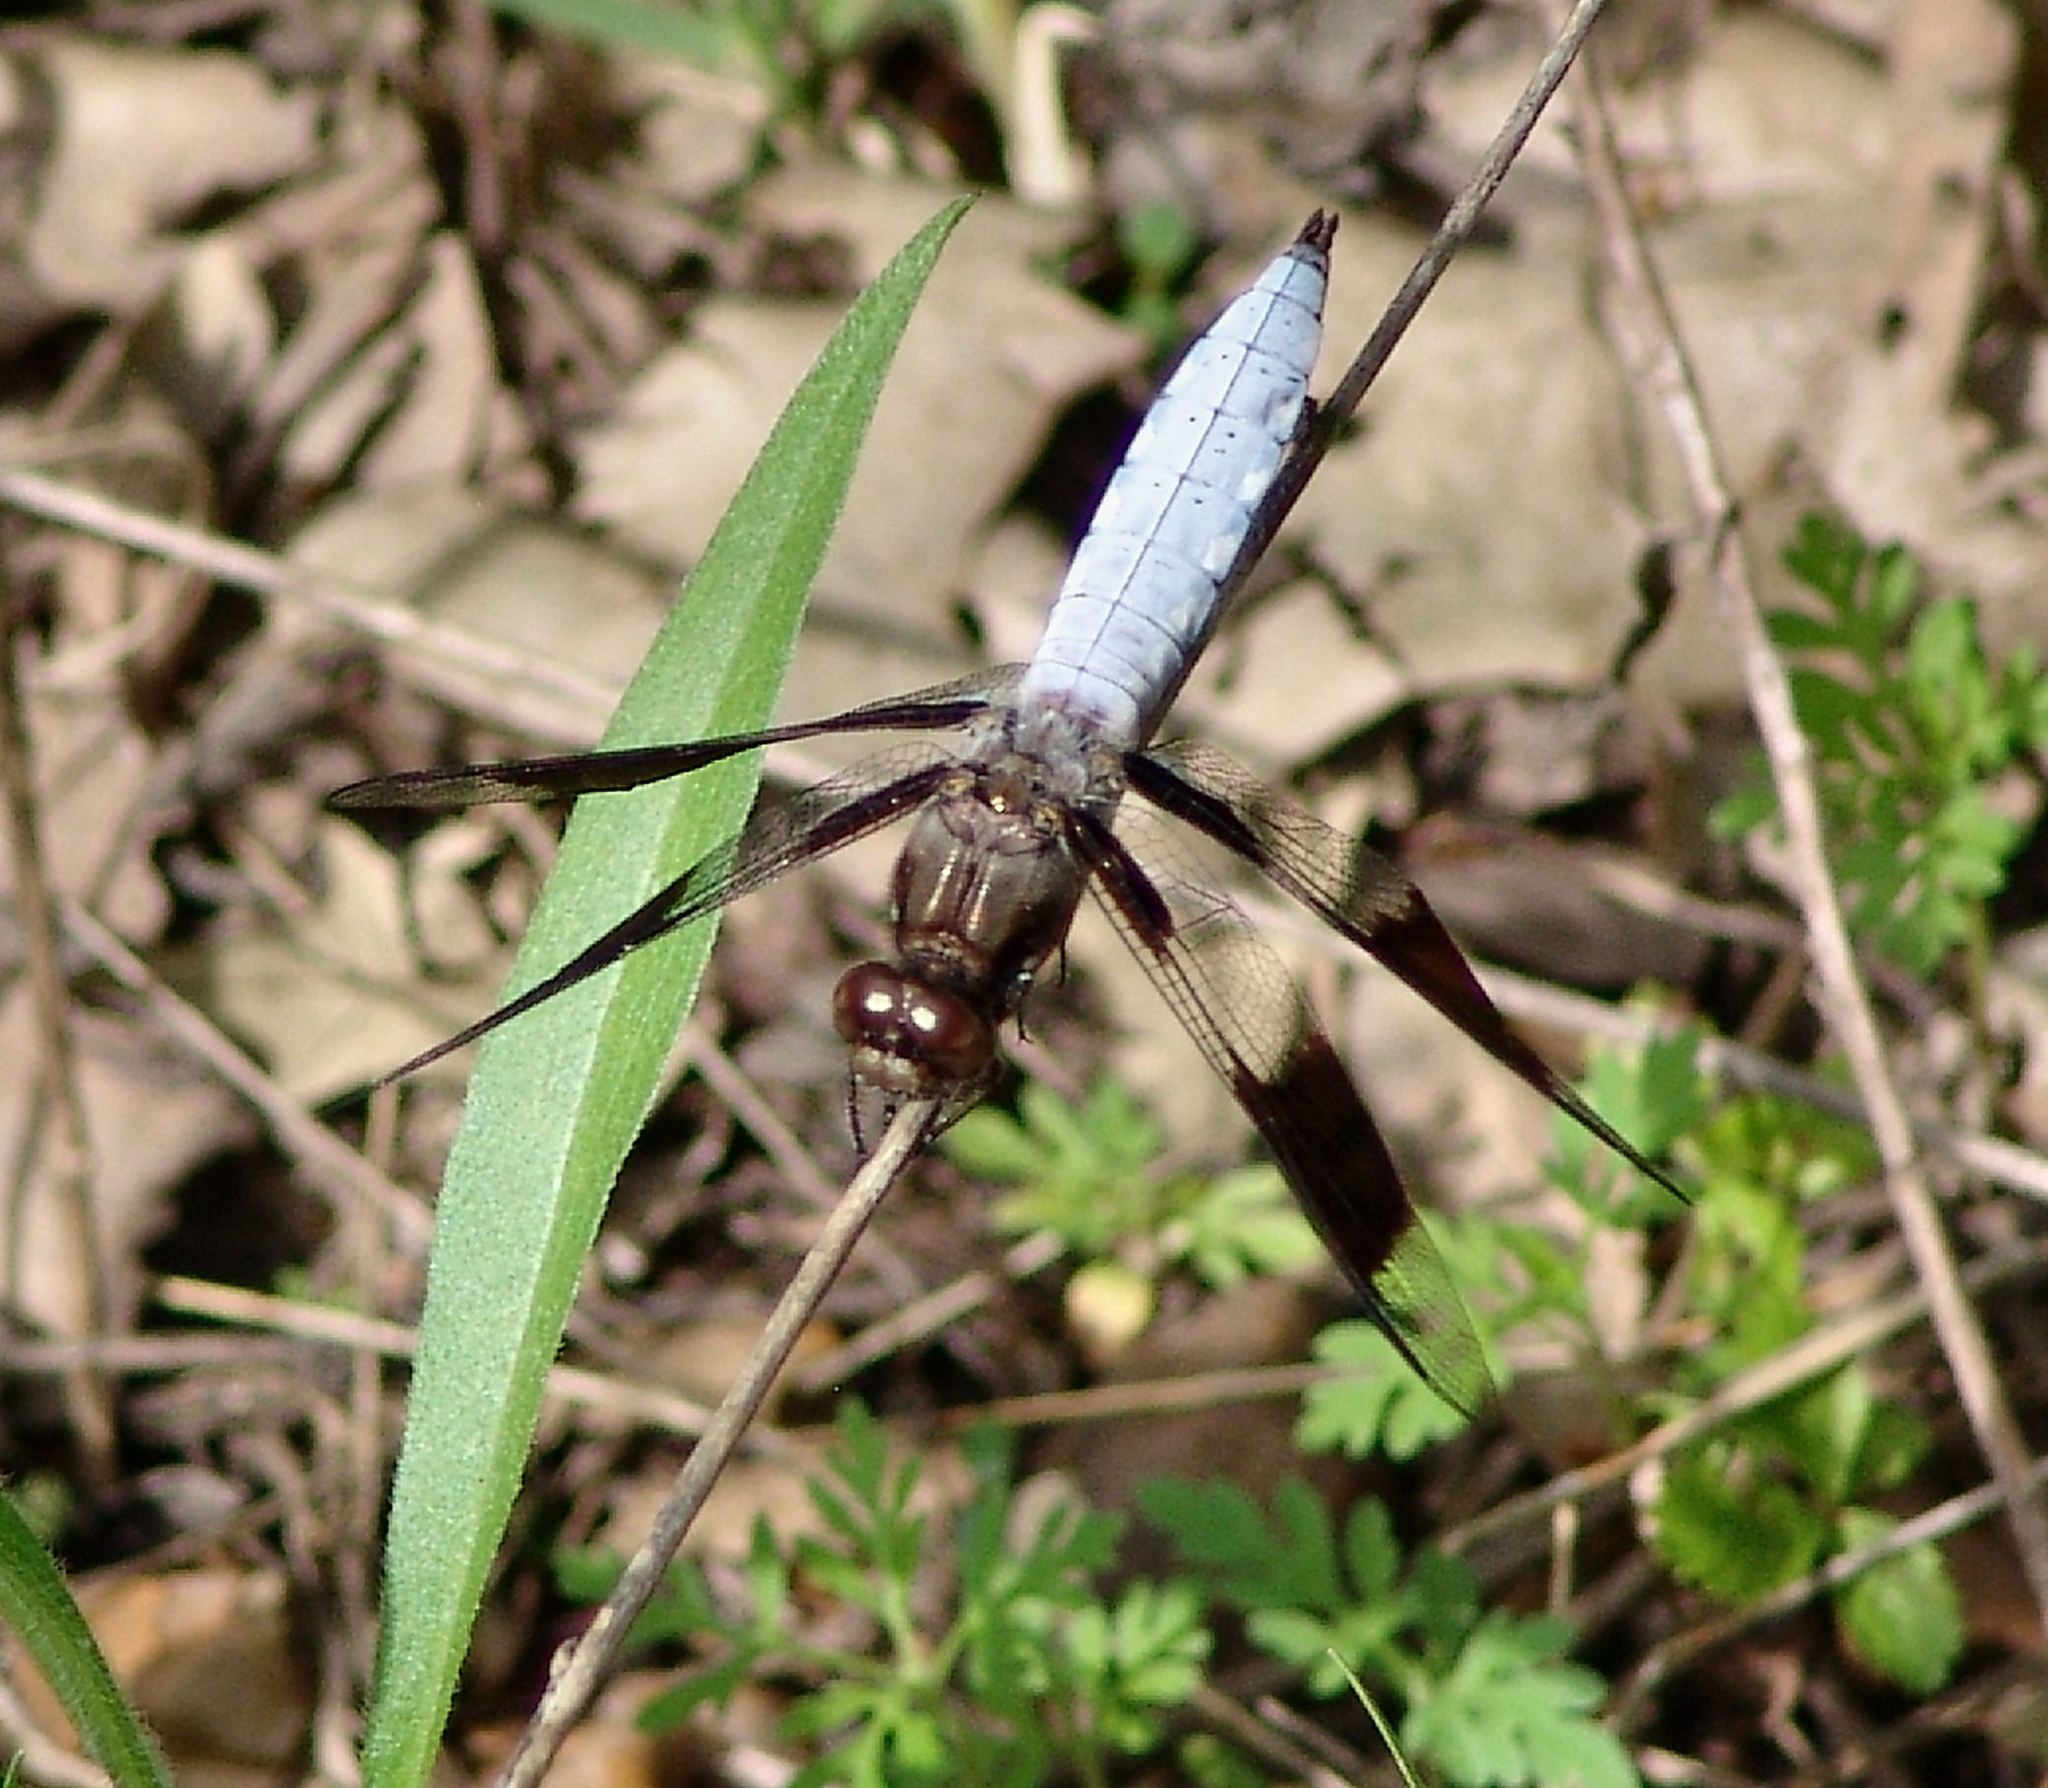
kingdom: Animalia
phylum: Arthropoda
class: Insecta
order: Odonata
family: Libellulidae
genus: Plathemis
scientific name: Plathemis lydia
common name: Common whitetail
